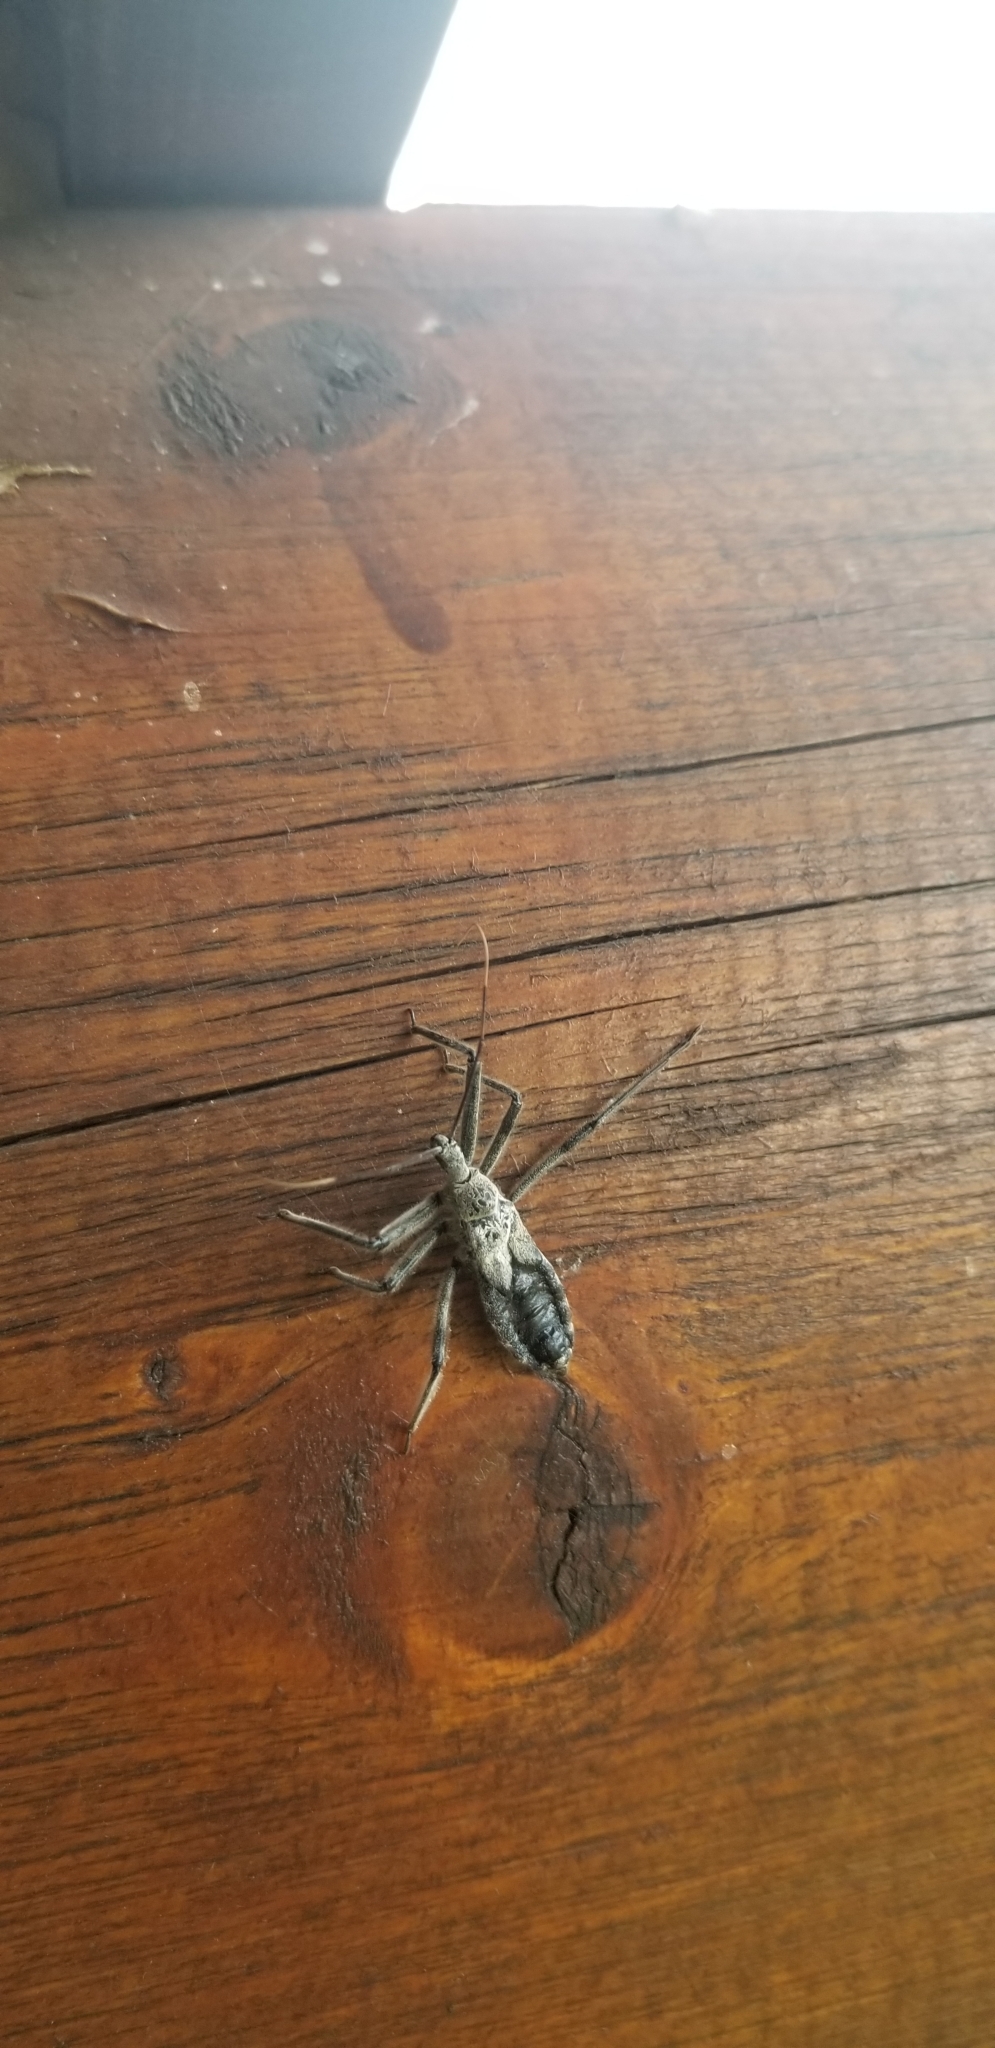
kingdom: Animalia
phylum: Arthropoda
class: Insecta
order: Hemiptera
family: Reduviidae
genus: Arilus
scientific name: Arilus cristatus
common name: North american wheel bug
